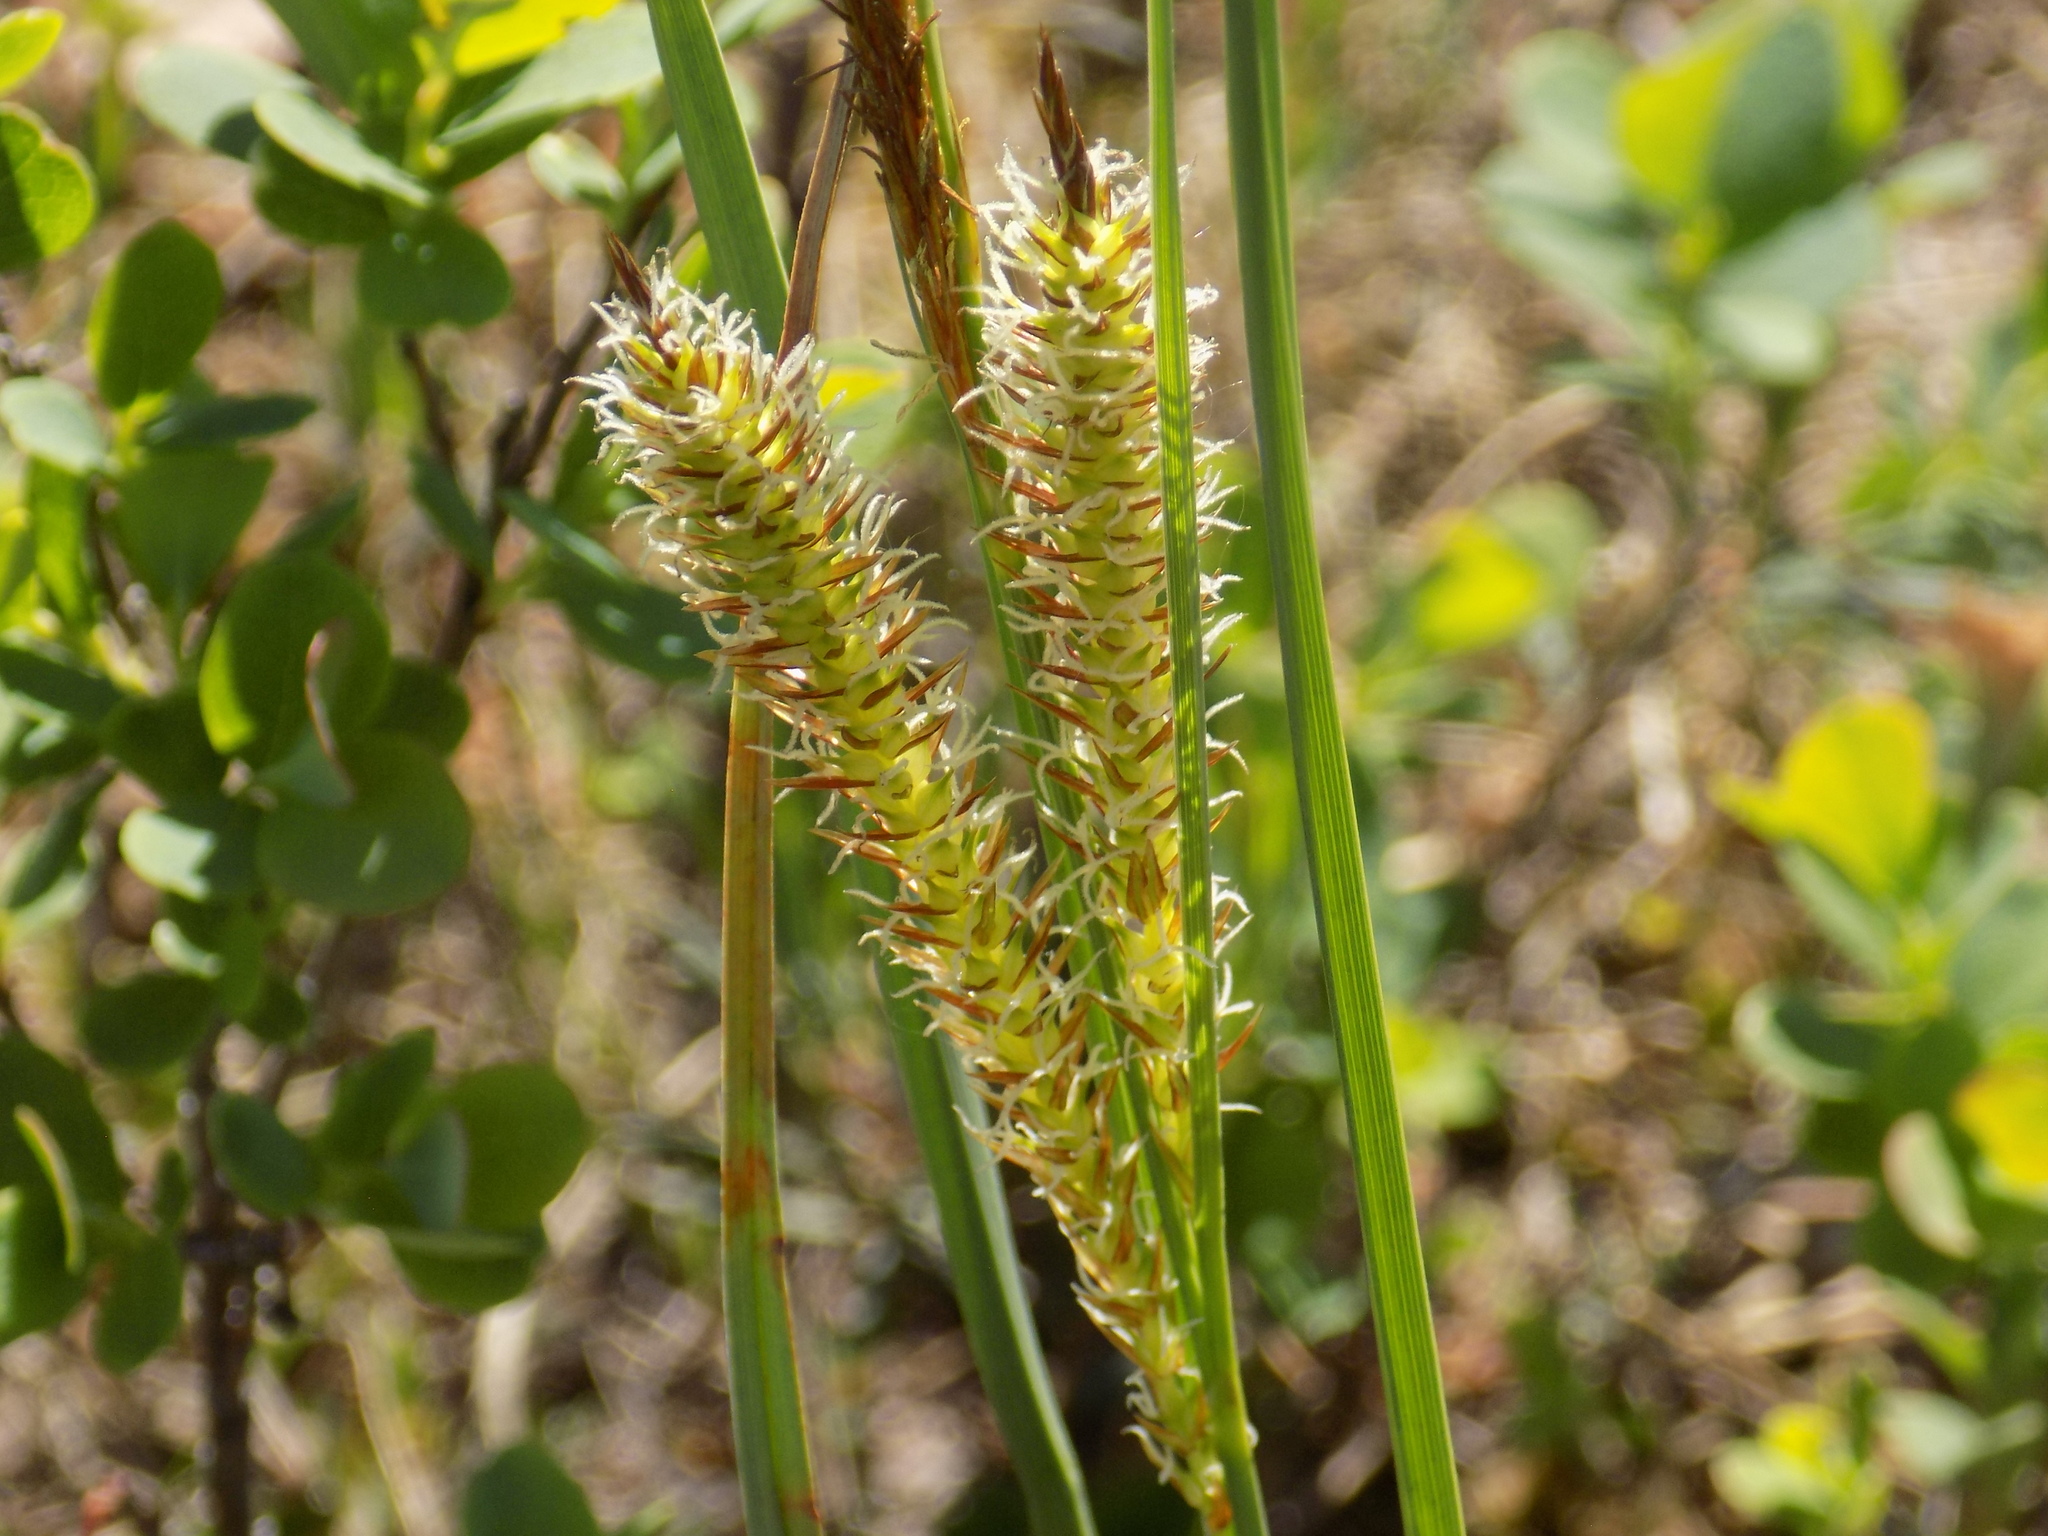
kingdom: Plantae
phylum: Tracheophyta
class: Liliopsida
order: Poales
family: Cyperaceae
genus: Carex
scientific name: Carex rostrata
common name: Bottle sedge
